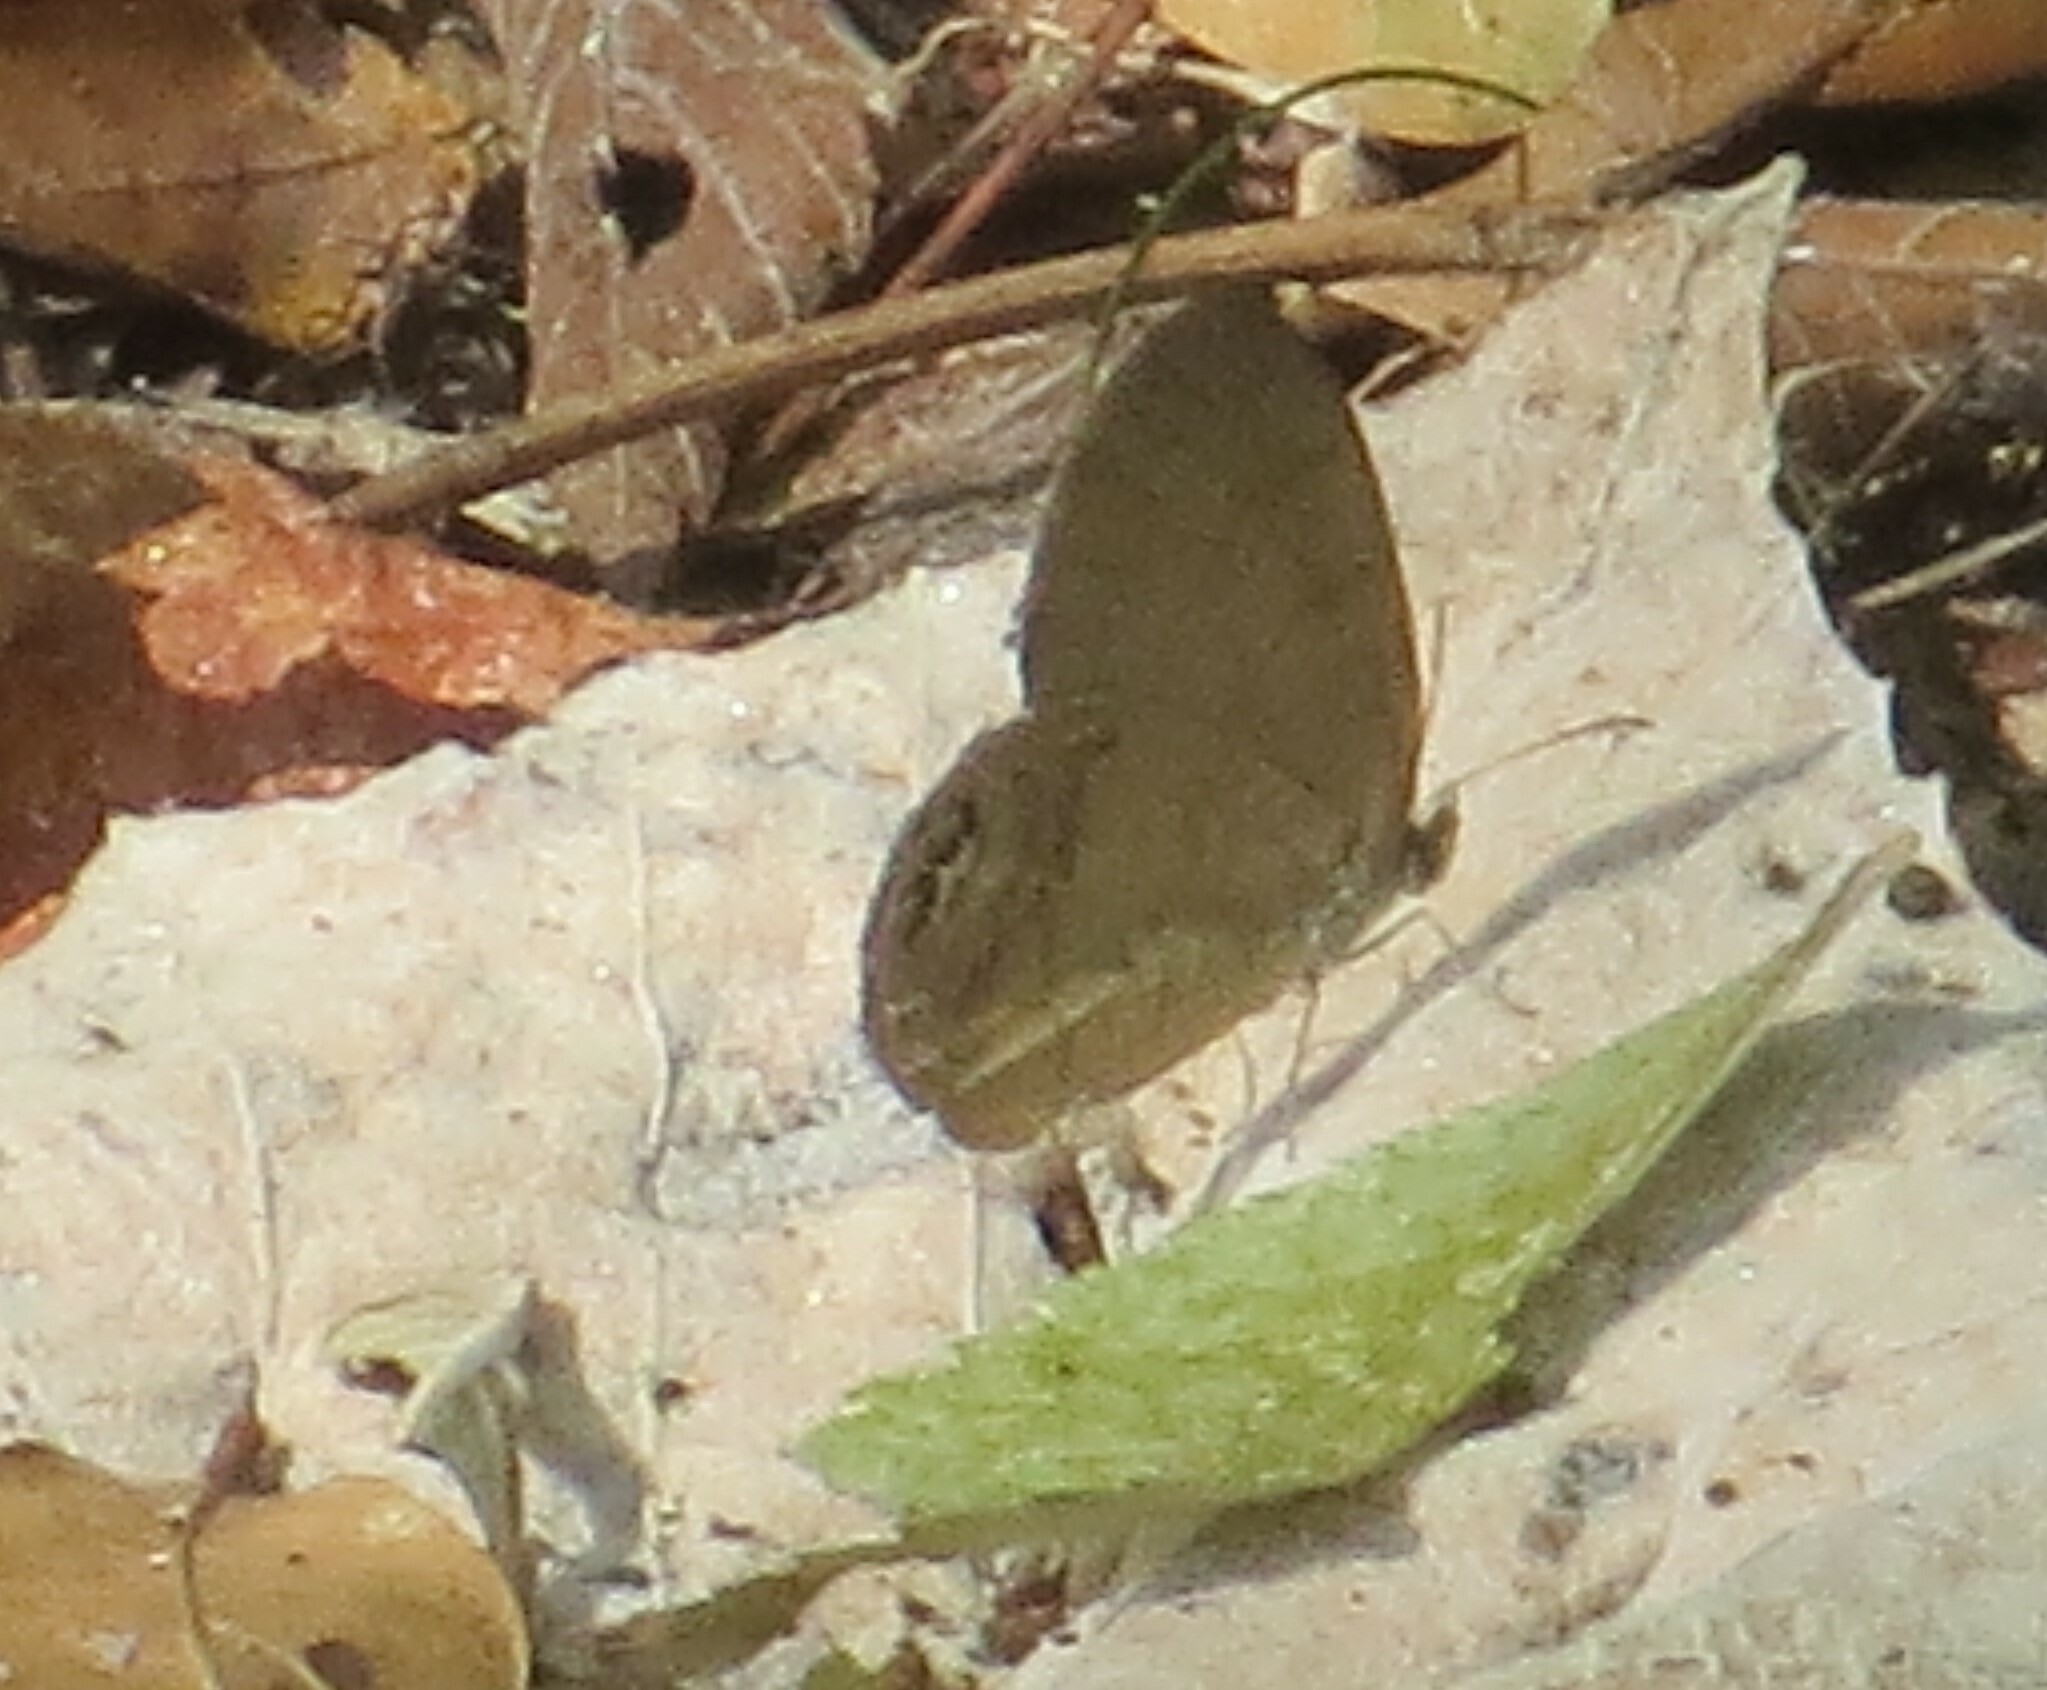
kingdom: Animalia
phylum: Arthropoda
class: Insecta
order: Lepidoptera
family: Nymphalidae
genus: Euptychia
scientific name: Euptychia cornelius
